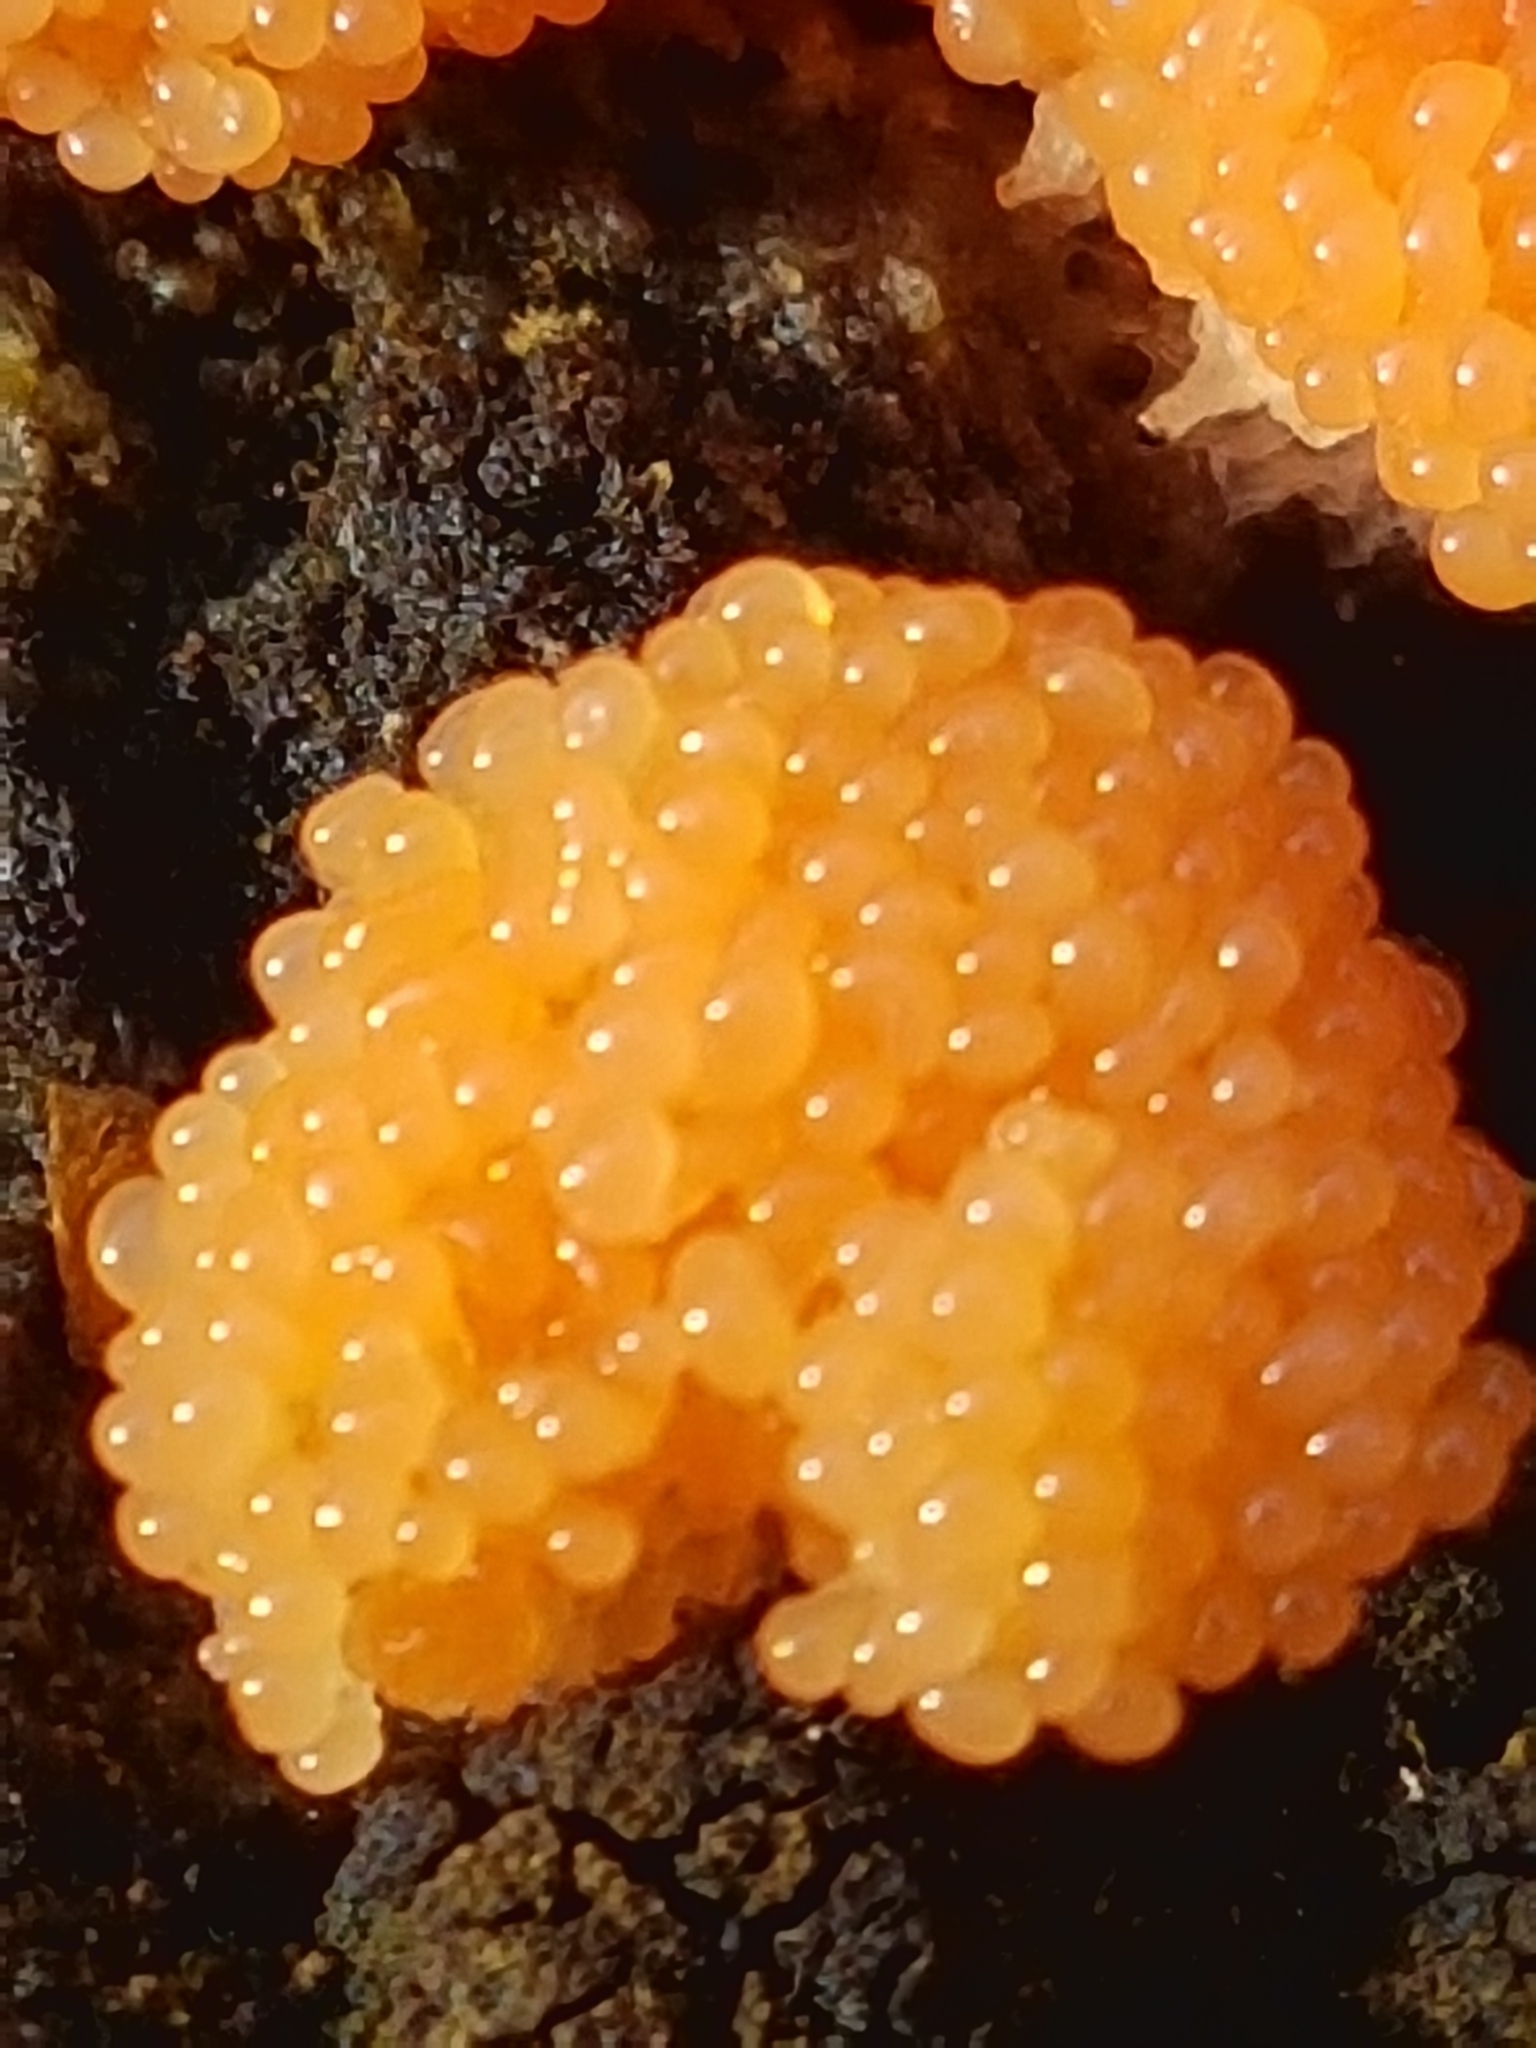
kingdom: Protozoa
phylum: Mycetozoa
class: Myxomycetes
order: Cribrariales
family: Tubiferaceae
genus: Tubifera
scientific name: Tubifera ferruginosa
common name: Red raspberry slime mold
